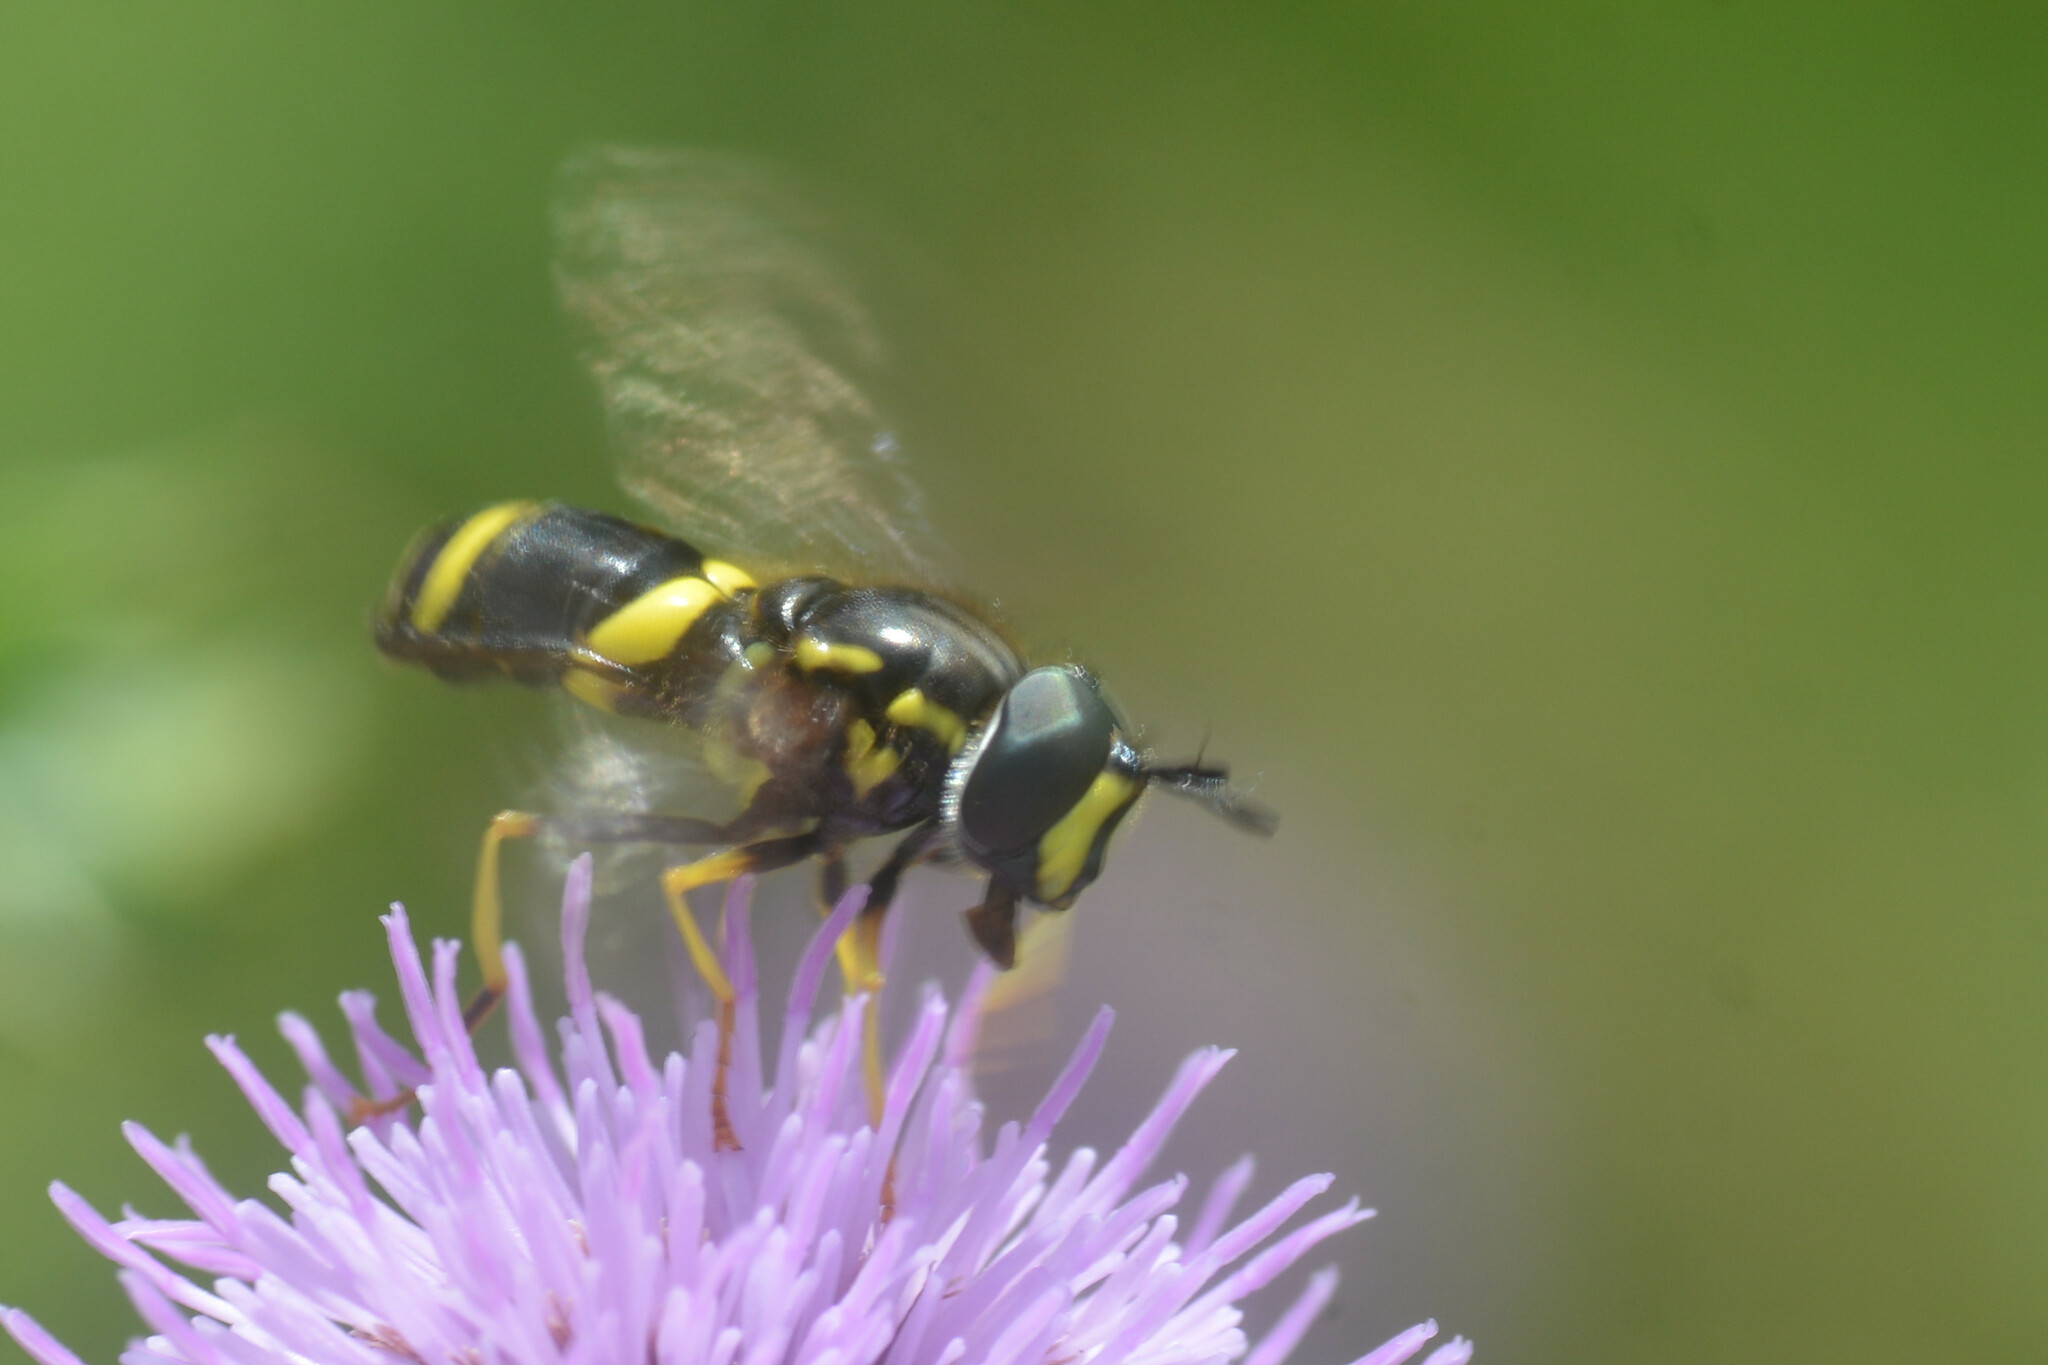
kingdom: Animalia
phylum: Arthropoda
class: Insecta
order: Diptera
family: Syrphidae
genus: Chrysotoxum
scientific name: Chrysotoxum bicincta
